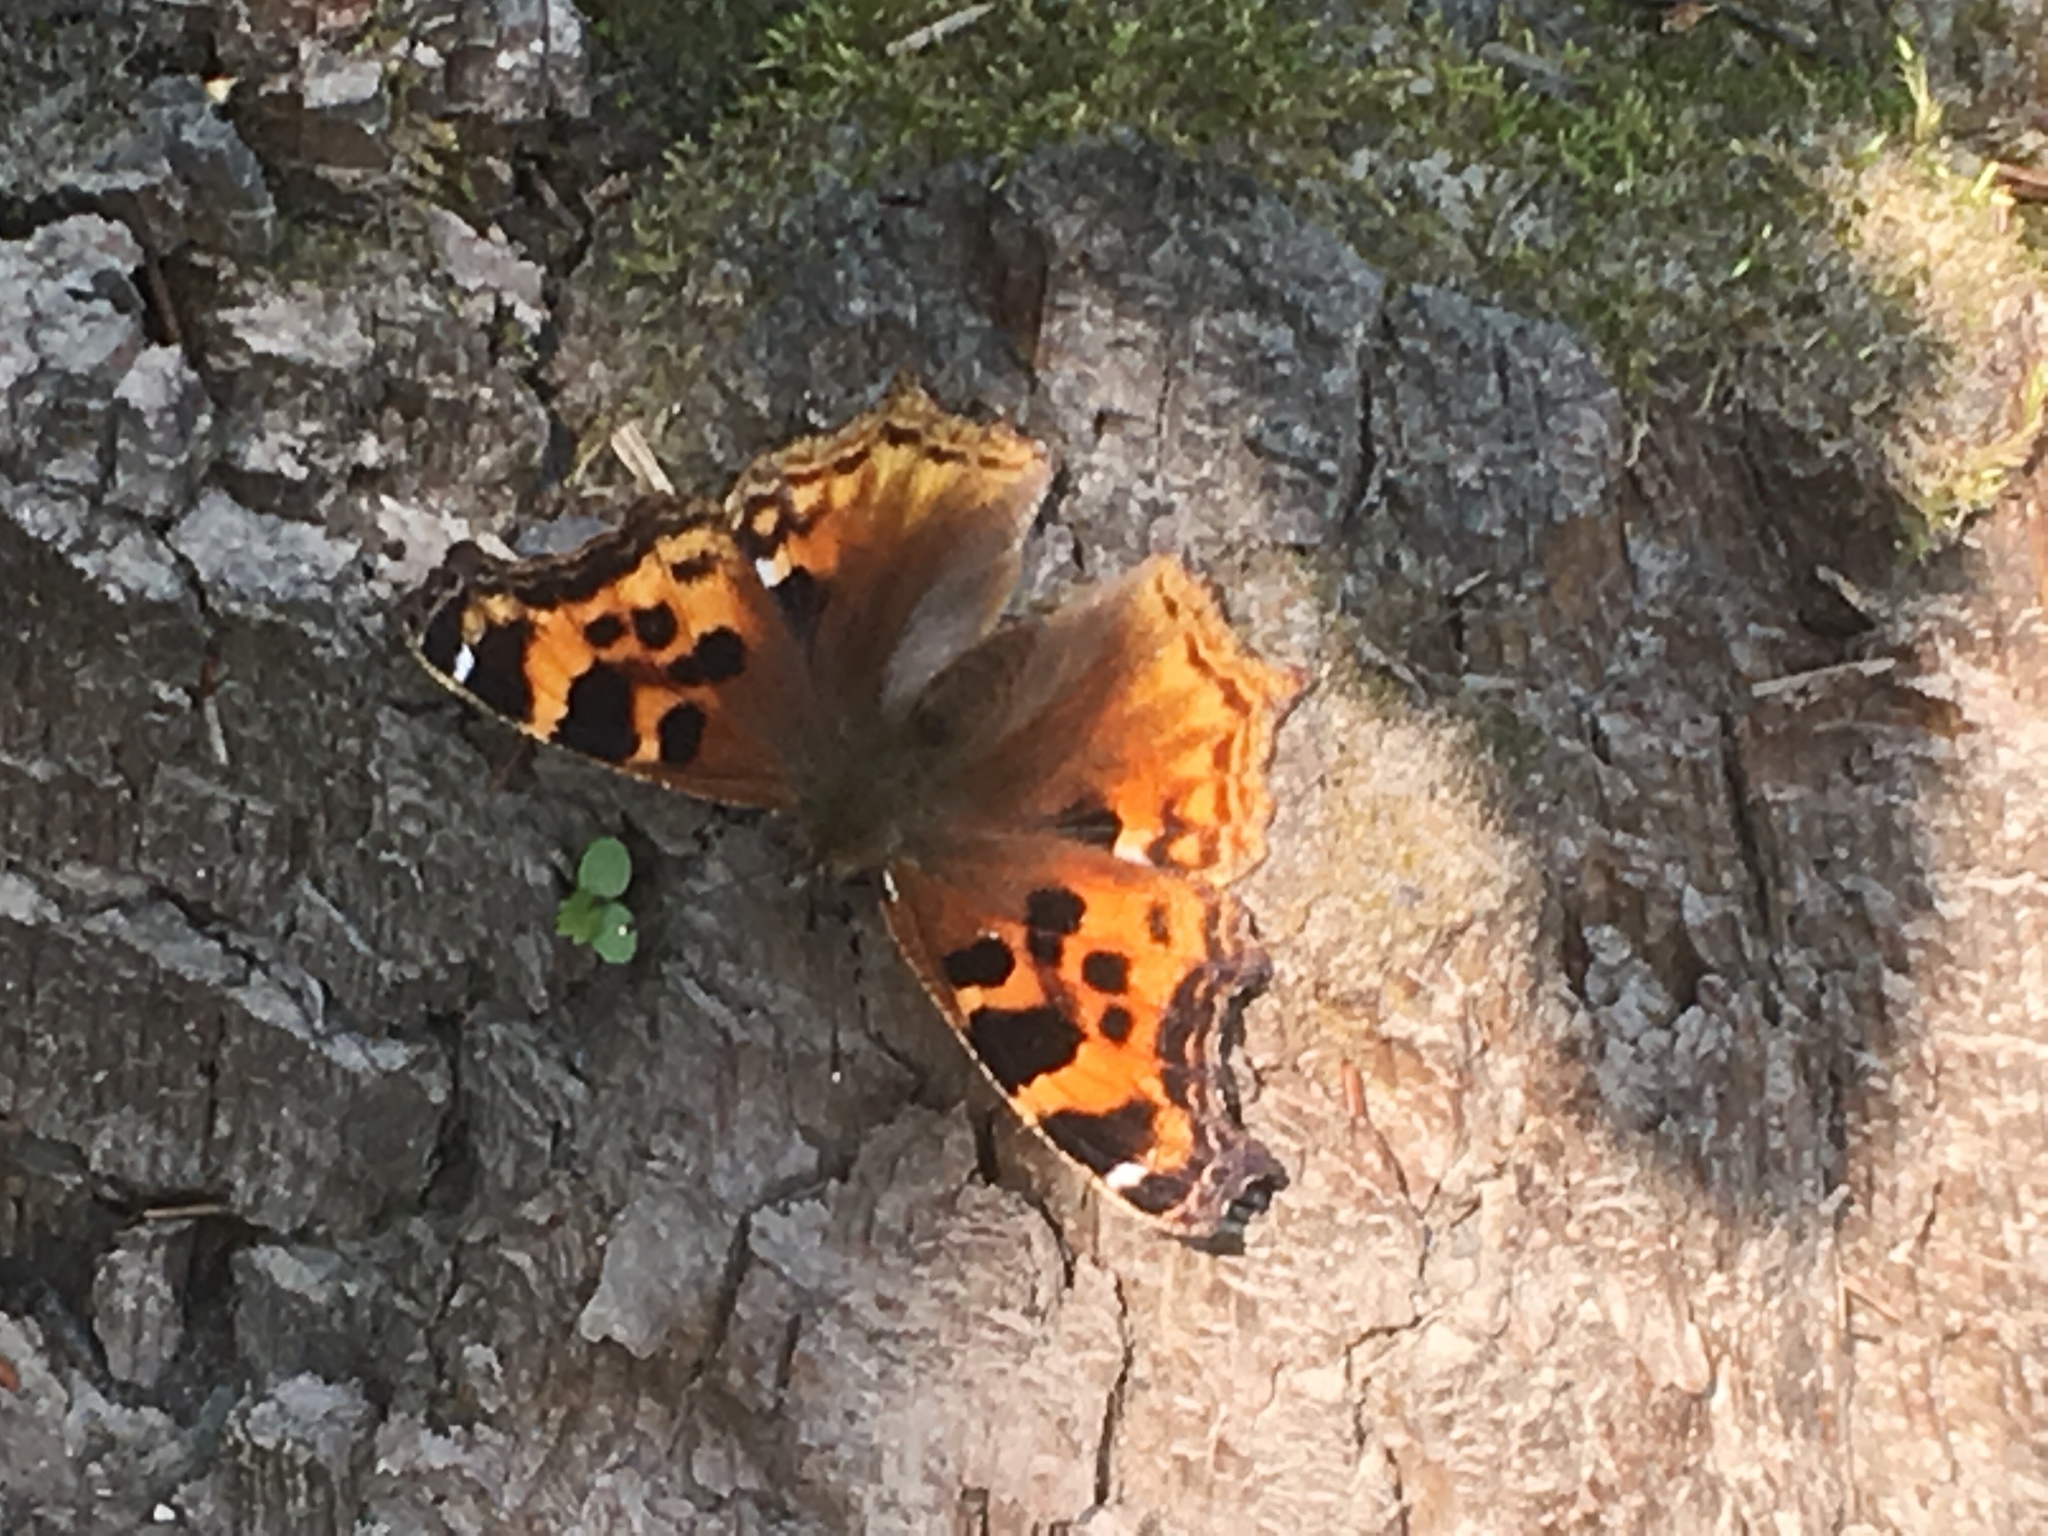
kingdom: Animalia
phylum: Arthropoda
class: Insecta
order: Lepidoptera
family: Nymphalidae
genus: Polygonia
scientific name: Polygonia vaualbum
